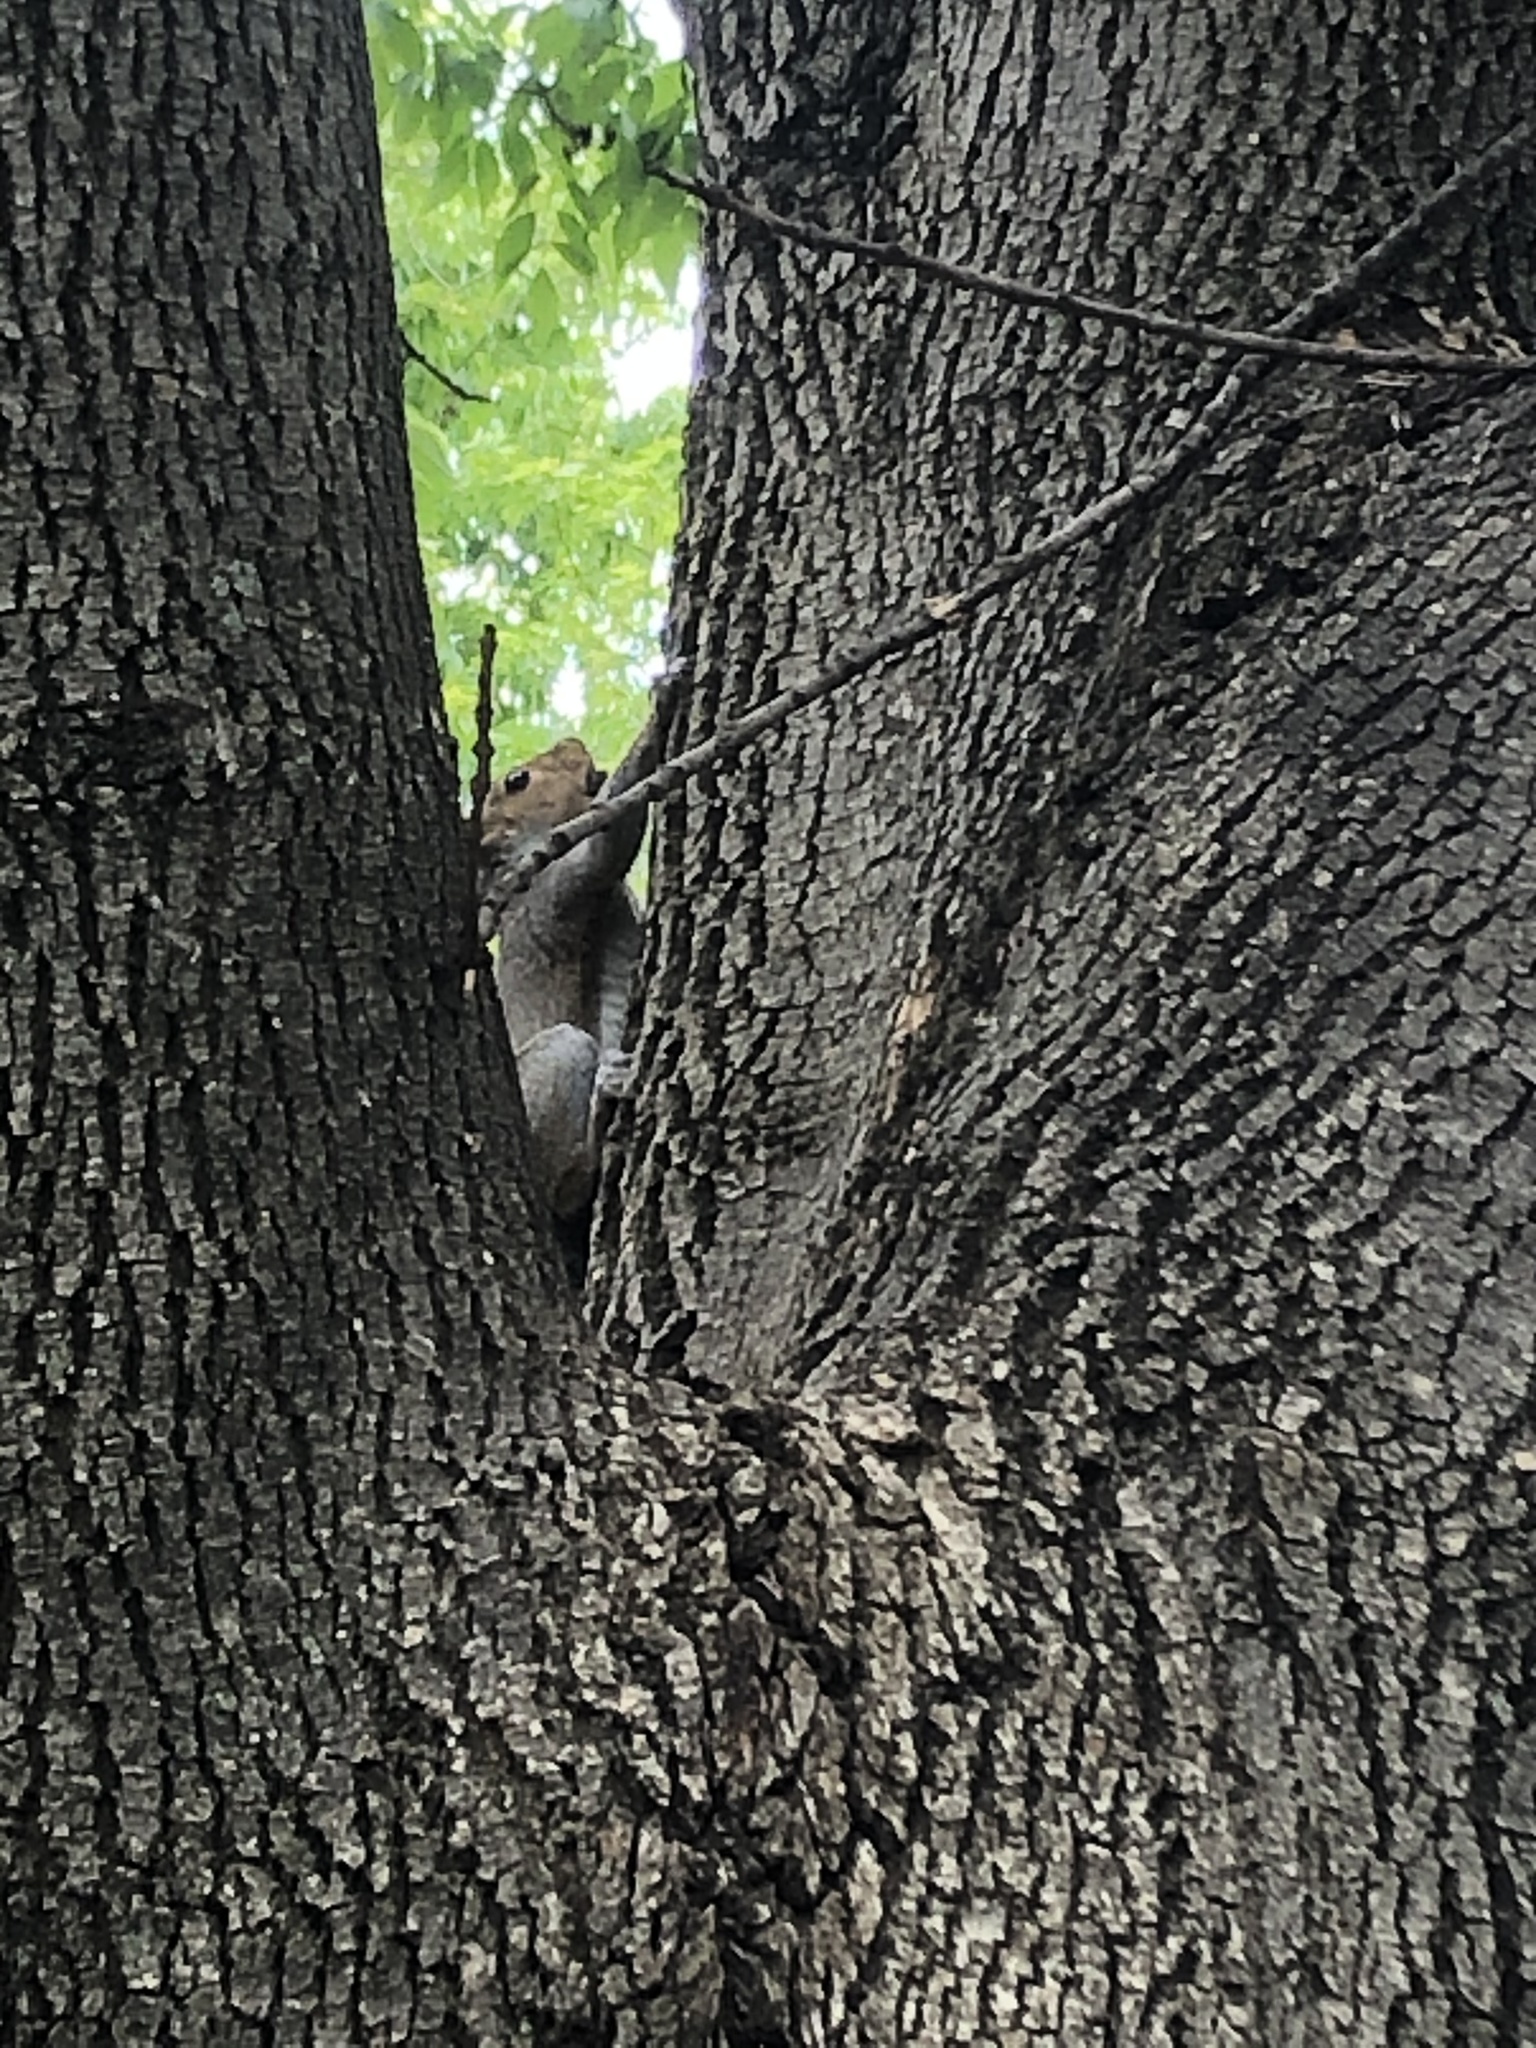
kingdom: Animalia
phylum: Chordata
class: Mammalia
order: Rodentia
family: Sciuridae
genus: Sciurus
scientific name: Sciurus carolinensis
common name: Eastern gray squirrel
